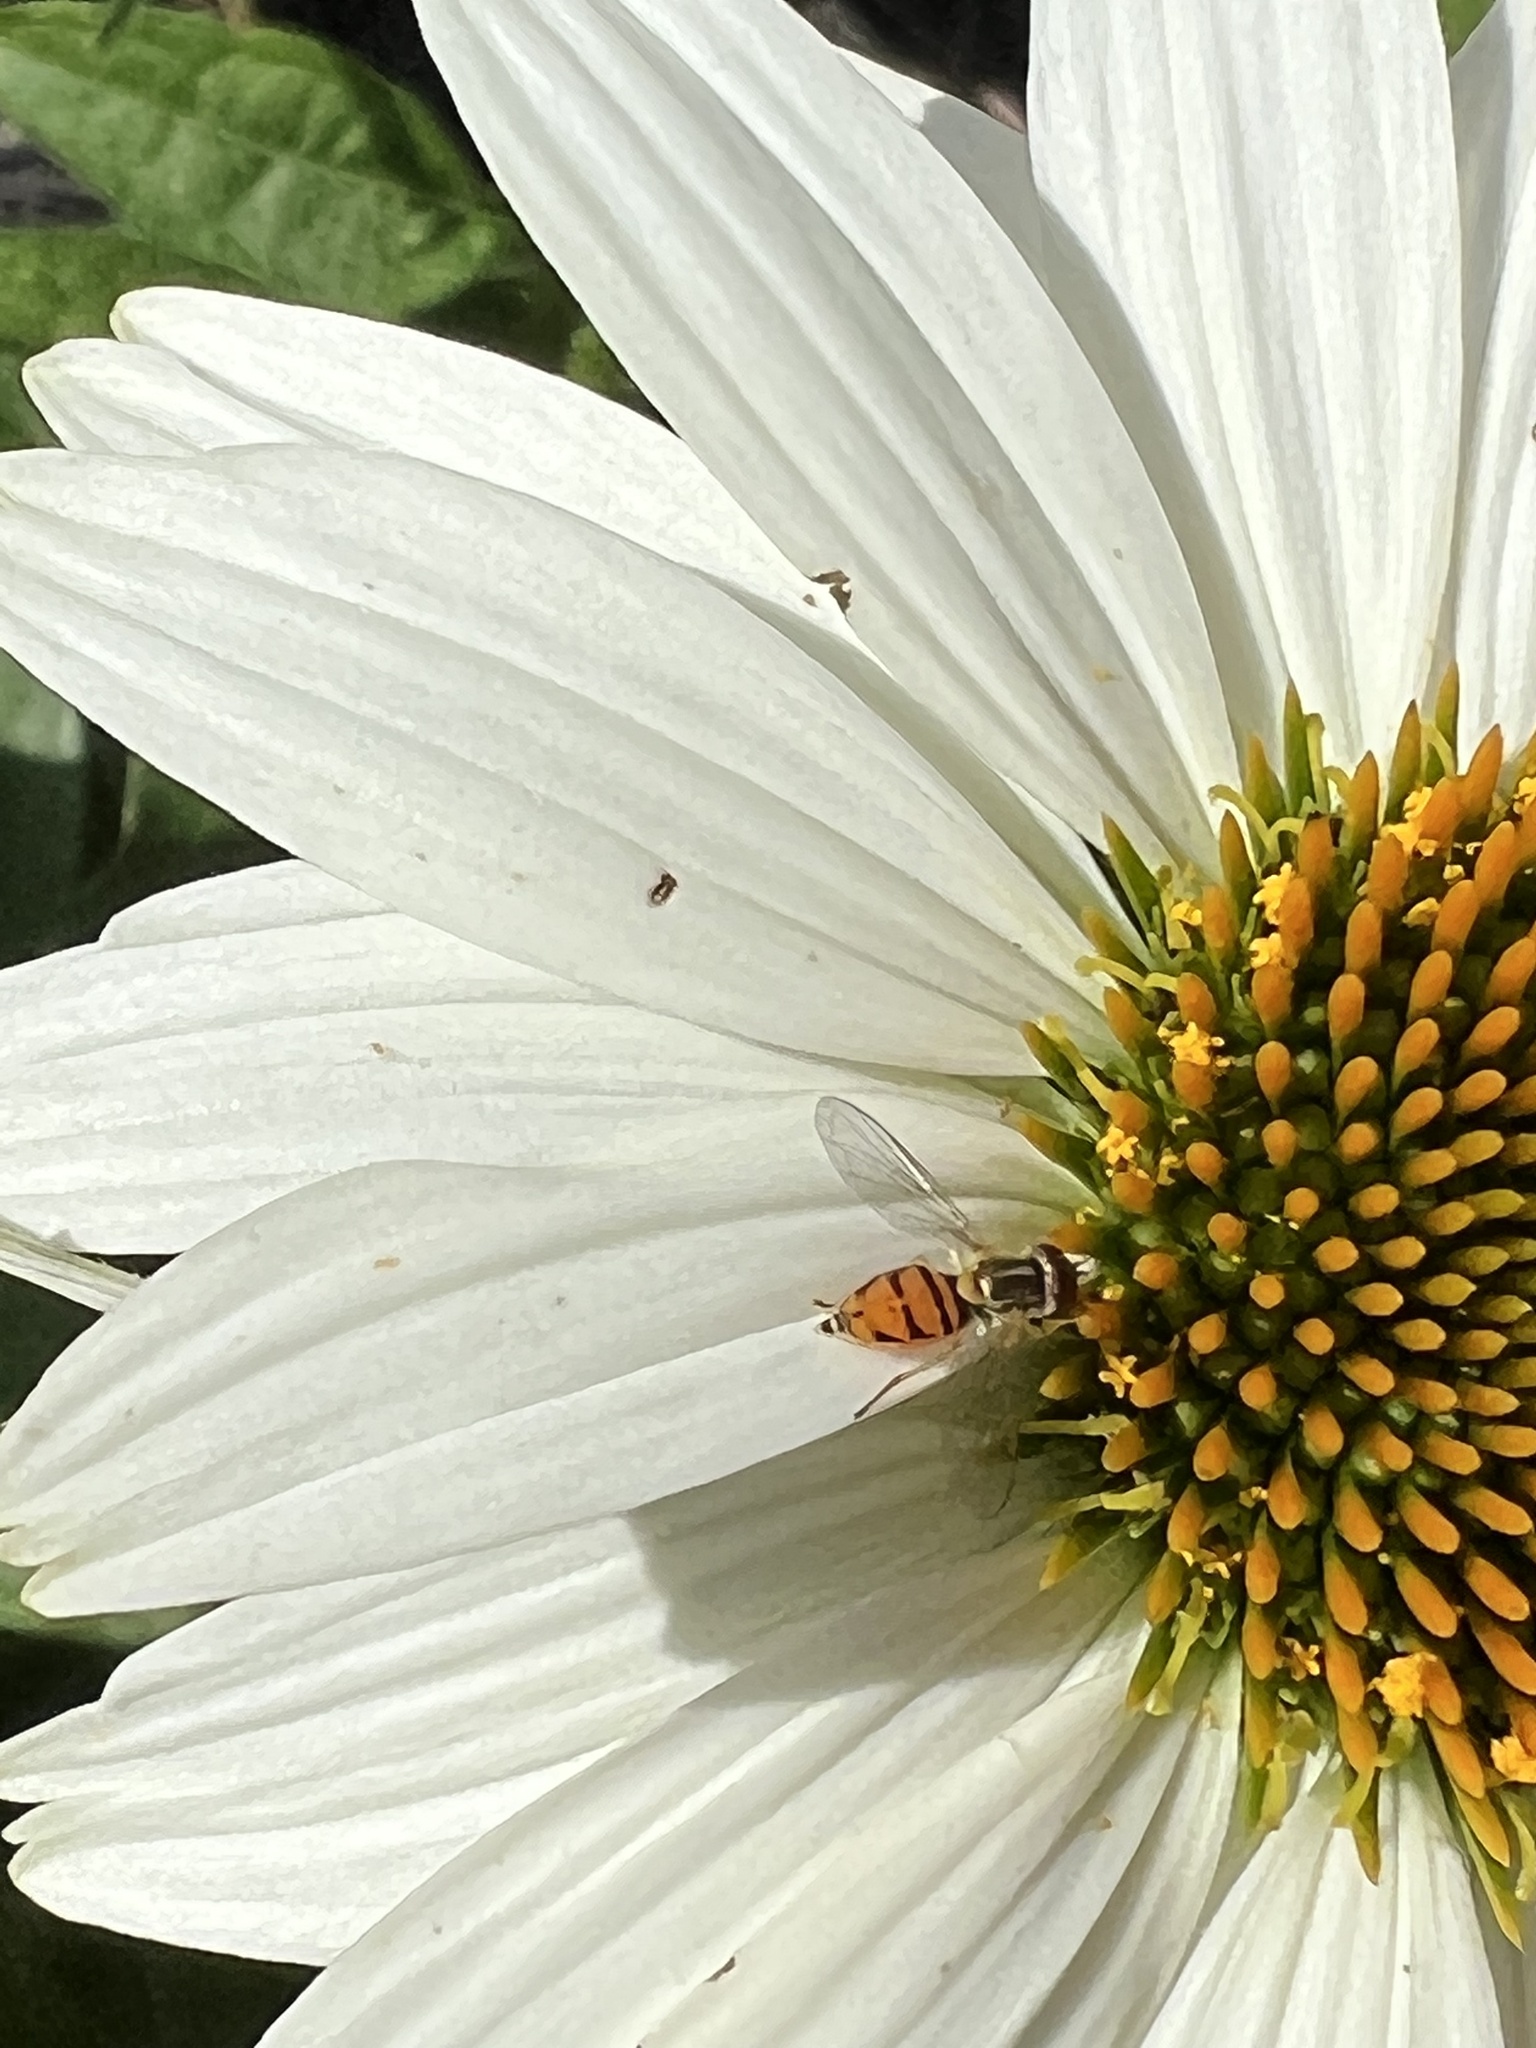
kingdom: Animalia
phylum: Arthropoda
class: Insecta
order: Diptera
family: Syrphidae
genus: Toxomerus
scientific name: Toxomerus marginatus
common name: Syrphid fly
